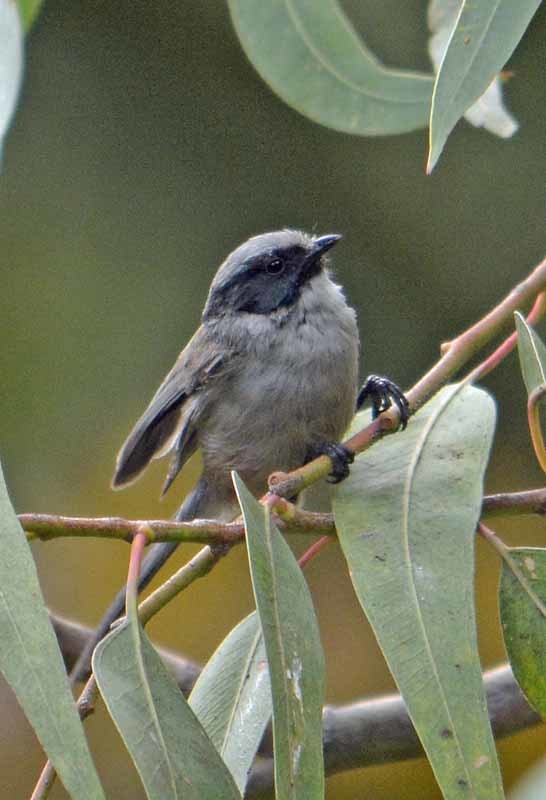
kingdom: Animalia
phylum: Chordata
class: Aves
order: Passeriformes
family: Aegithalidae
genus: Psaltriparus
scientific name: Psaltriparus minimus
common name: American bushtit
